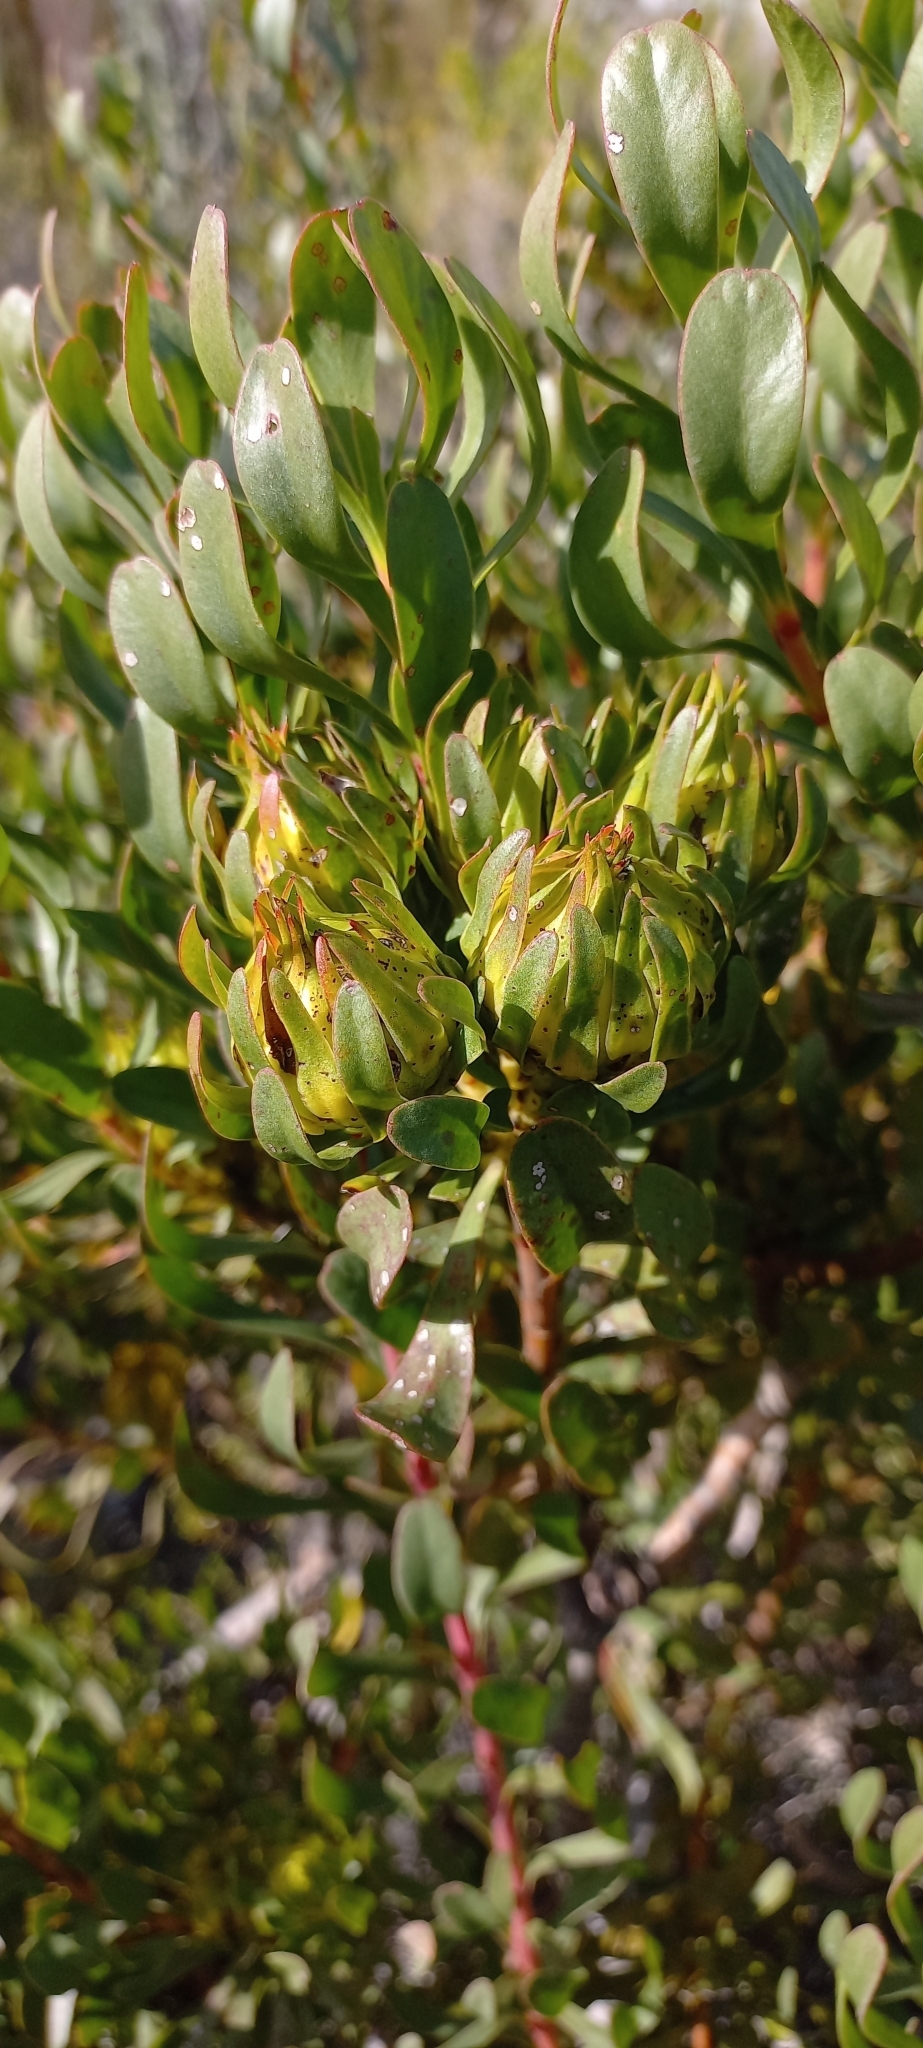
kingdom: Plantae
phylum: Tracheophyta
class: Magnoliopsida
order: Proteales
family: Proteaceae
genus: Aulax
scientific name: Aulax umbellata
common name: Broad-leaf featherbush
